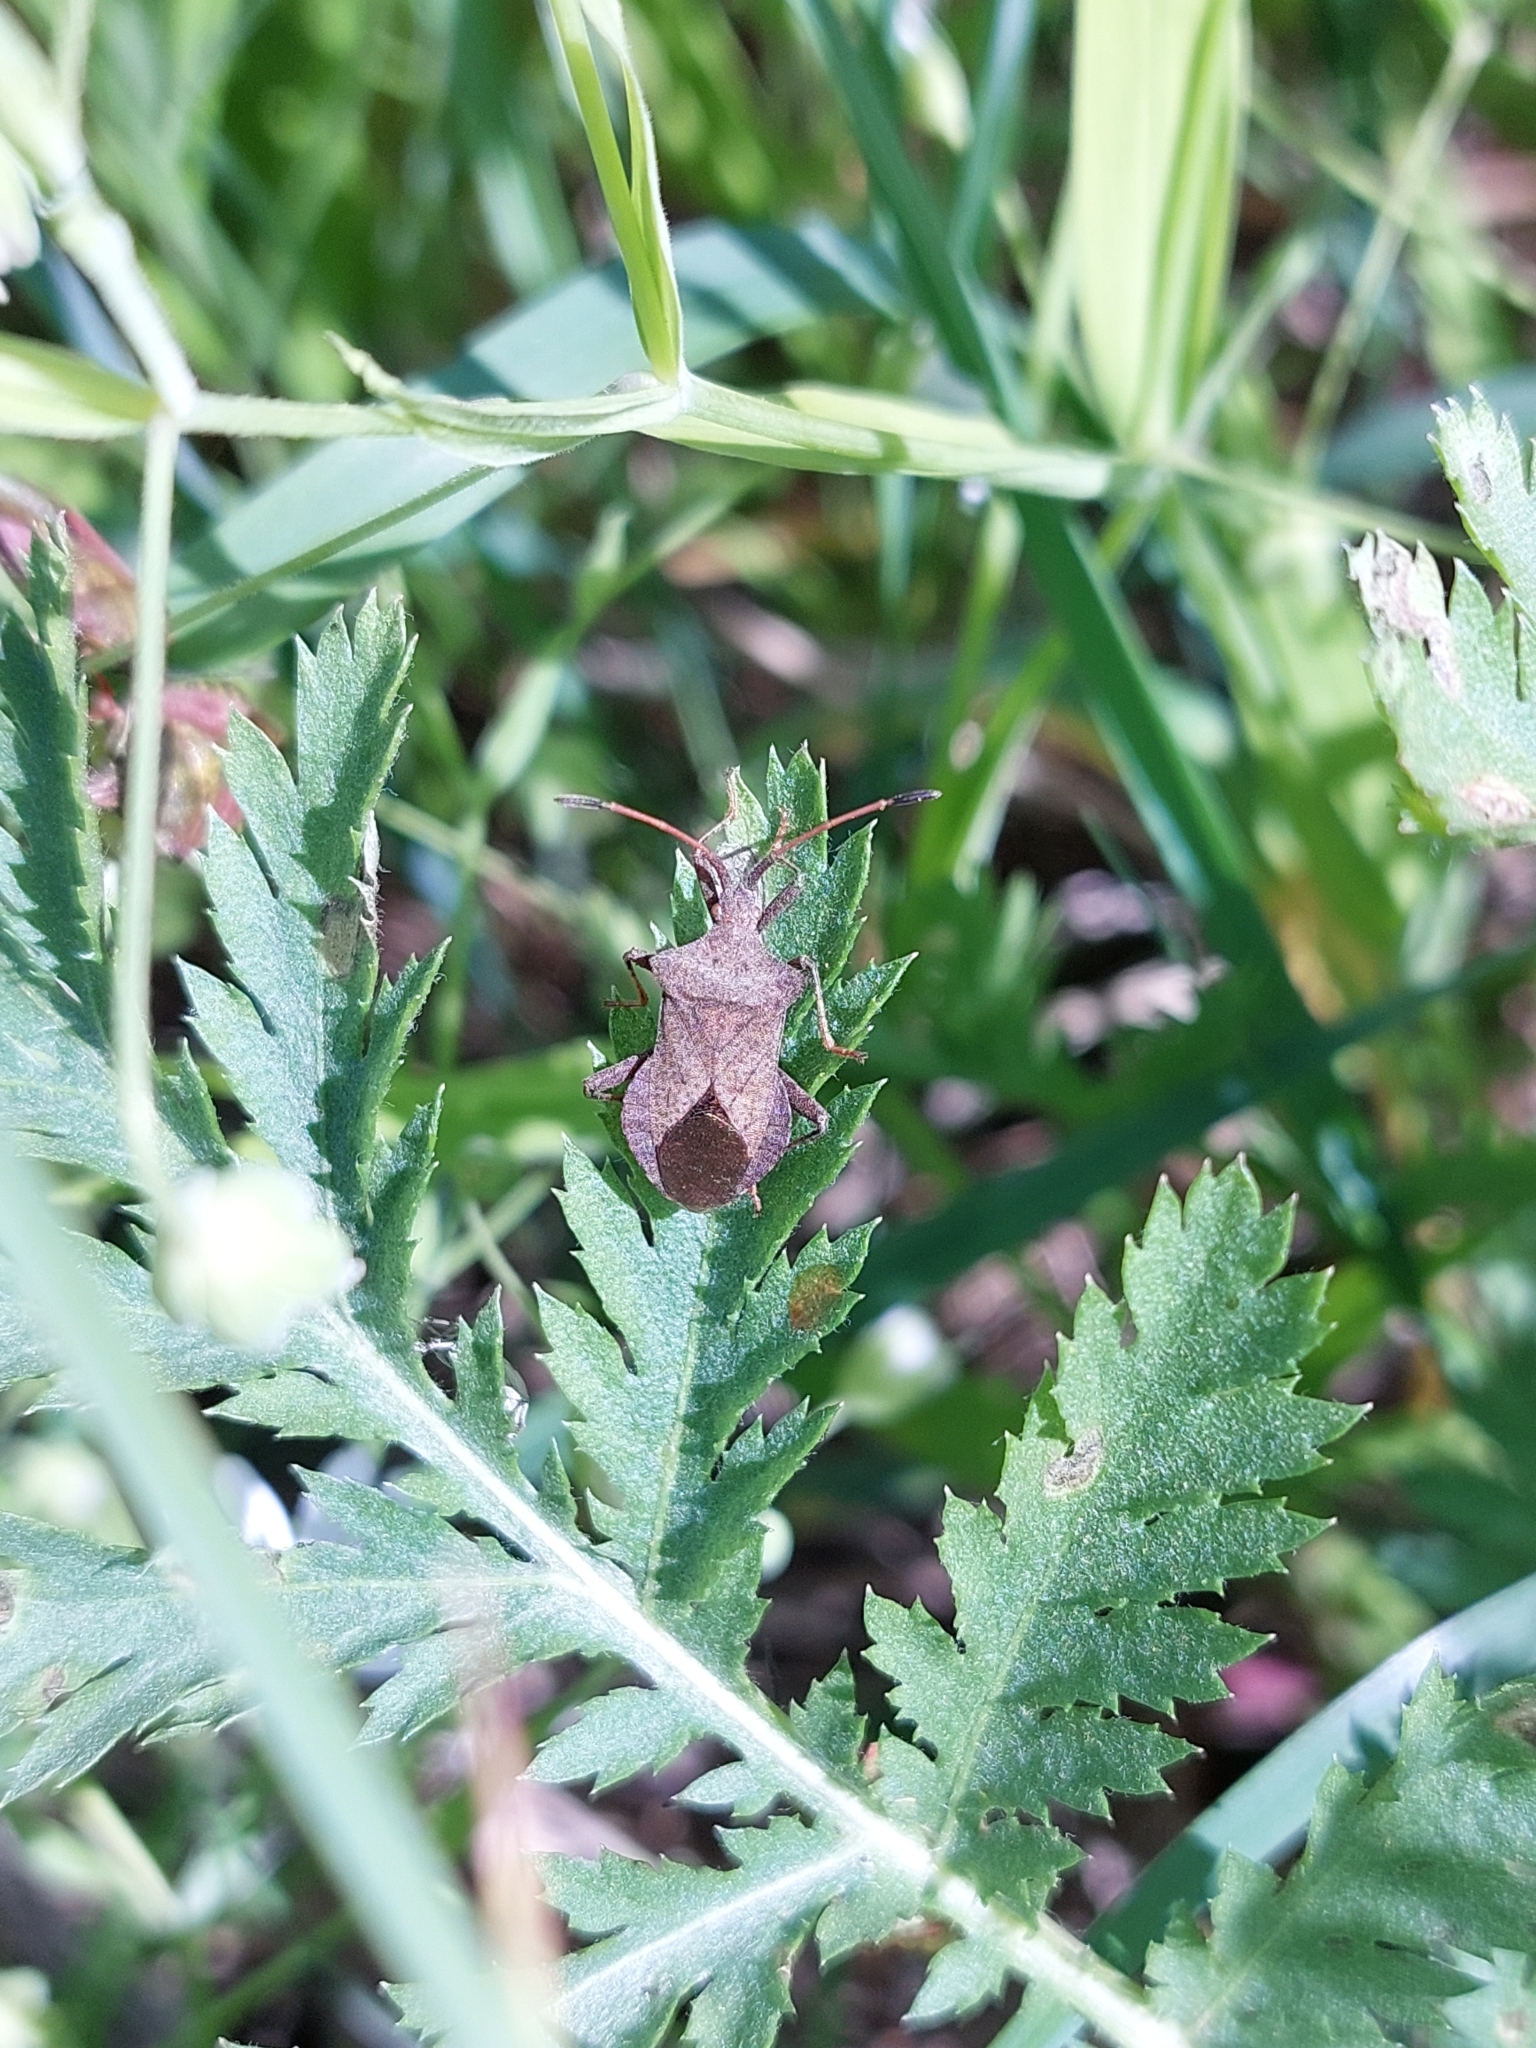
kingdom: Animalia
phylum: Arthropoda
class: Insecta
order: Hemiptera
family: Coreidae
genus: Coreus
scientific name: Coreus marginatus
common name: Dock bug
